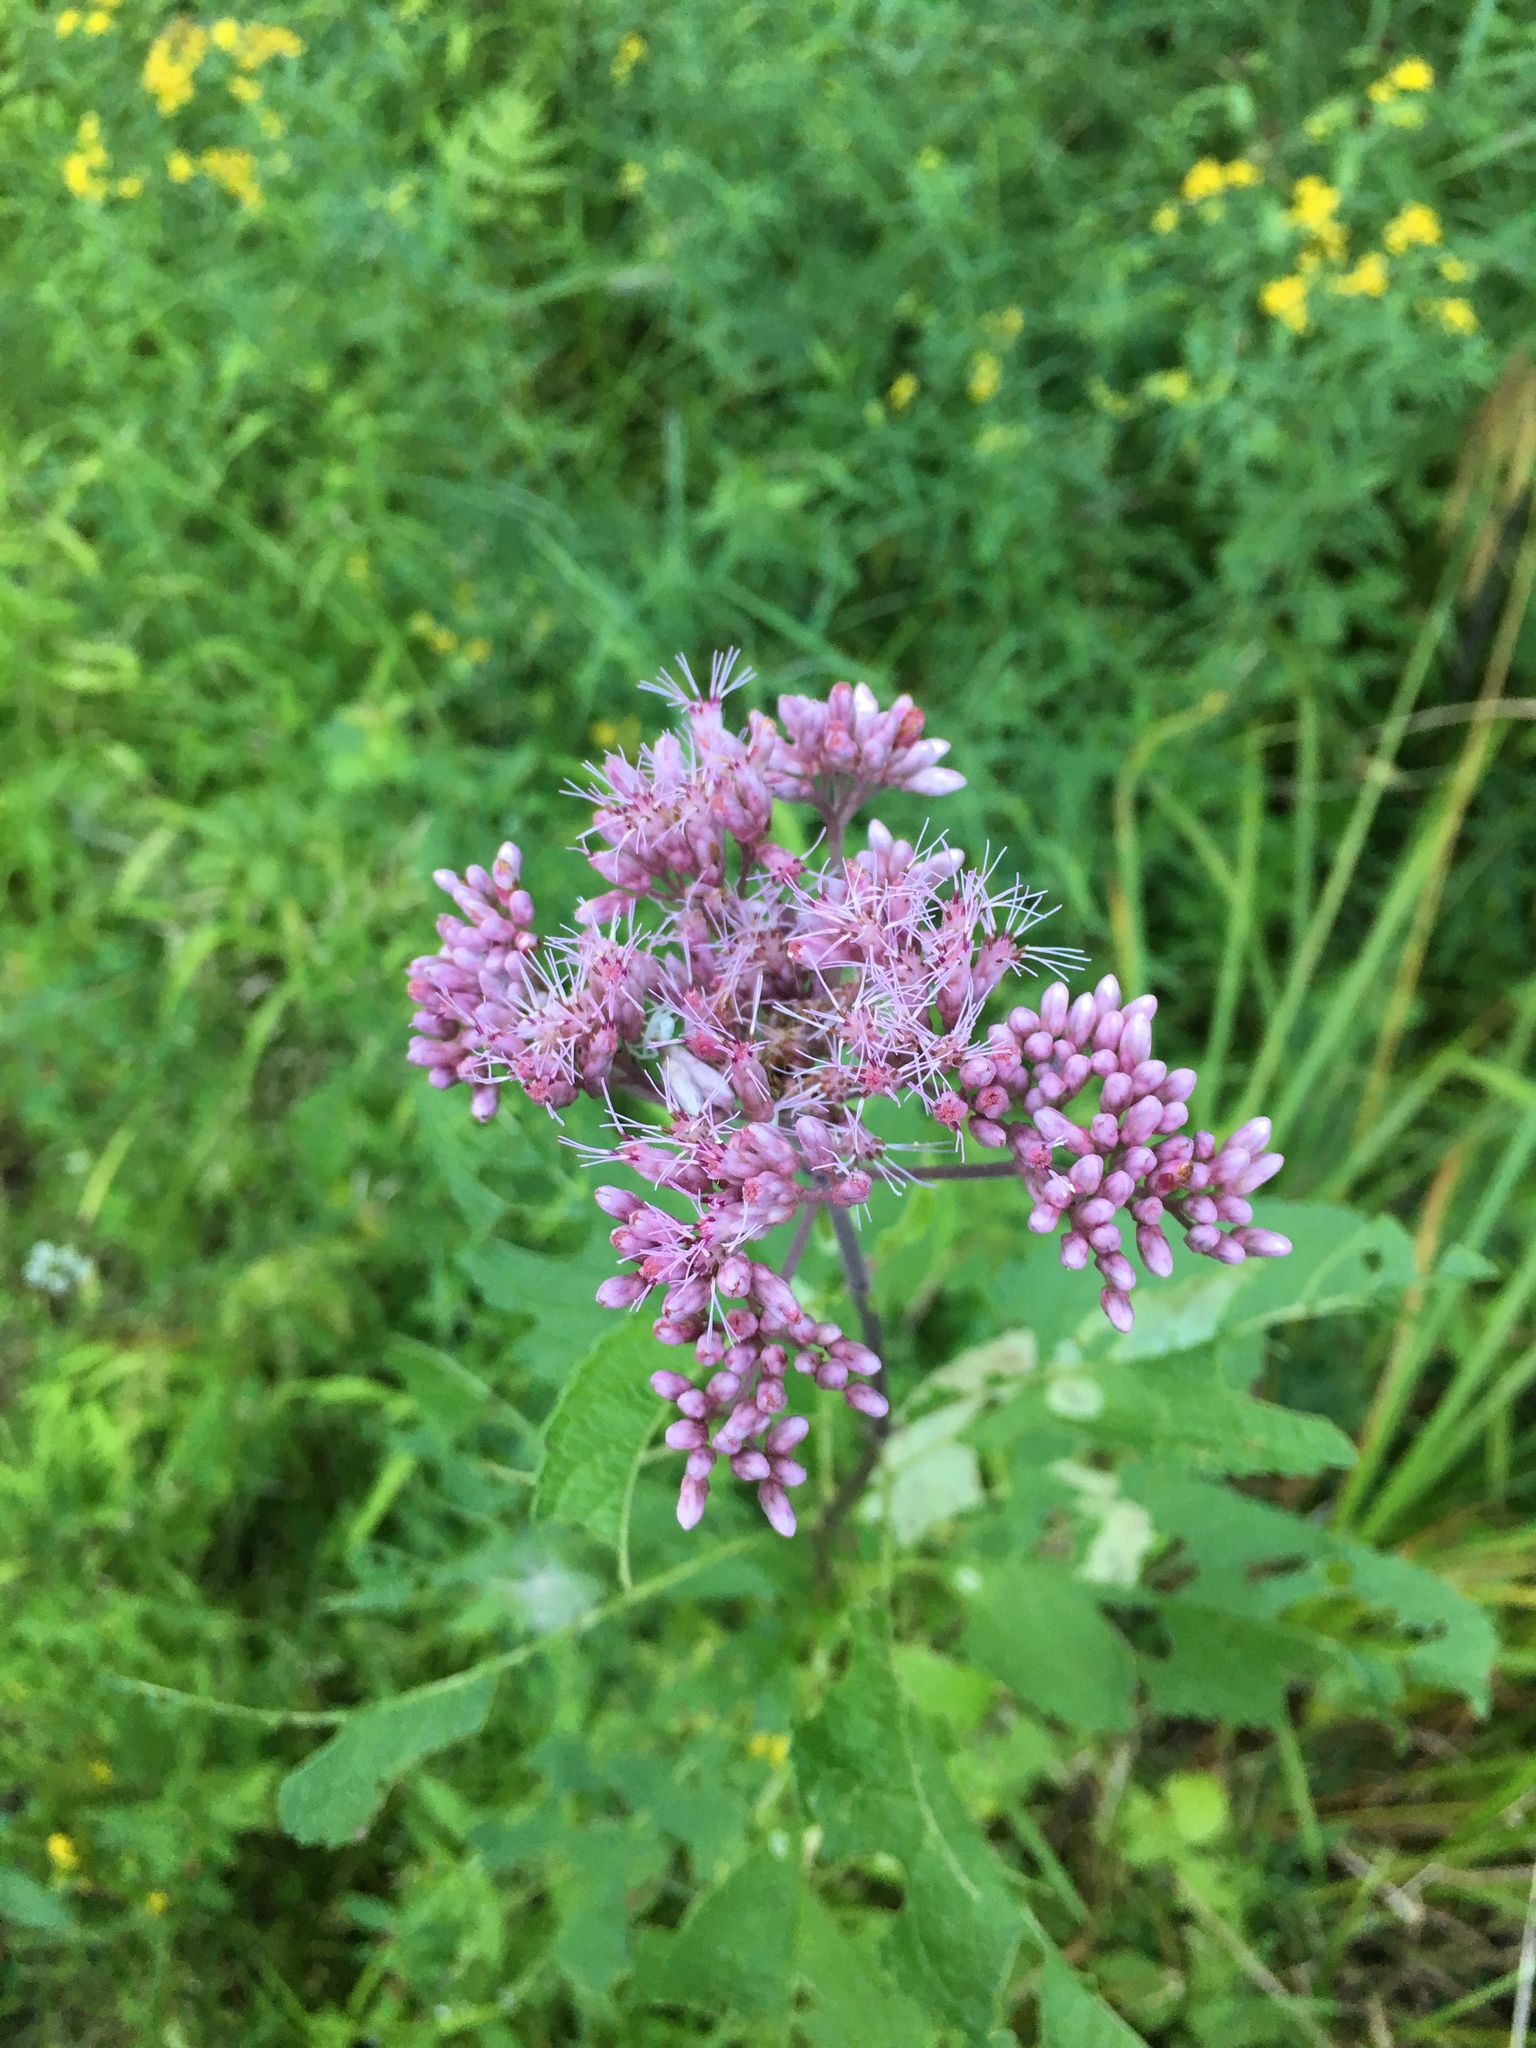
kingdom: Plantae
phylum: Tracheophyta
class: Magnoliopsida
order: Asterales
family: Asteraceae
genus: Eutrochium
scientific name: Eutrochium maculatum
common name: Spotted joe pye weed
